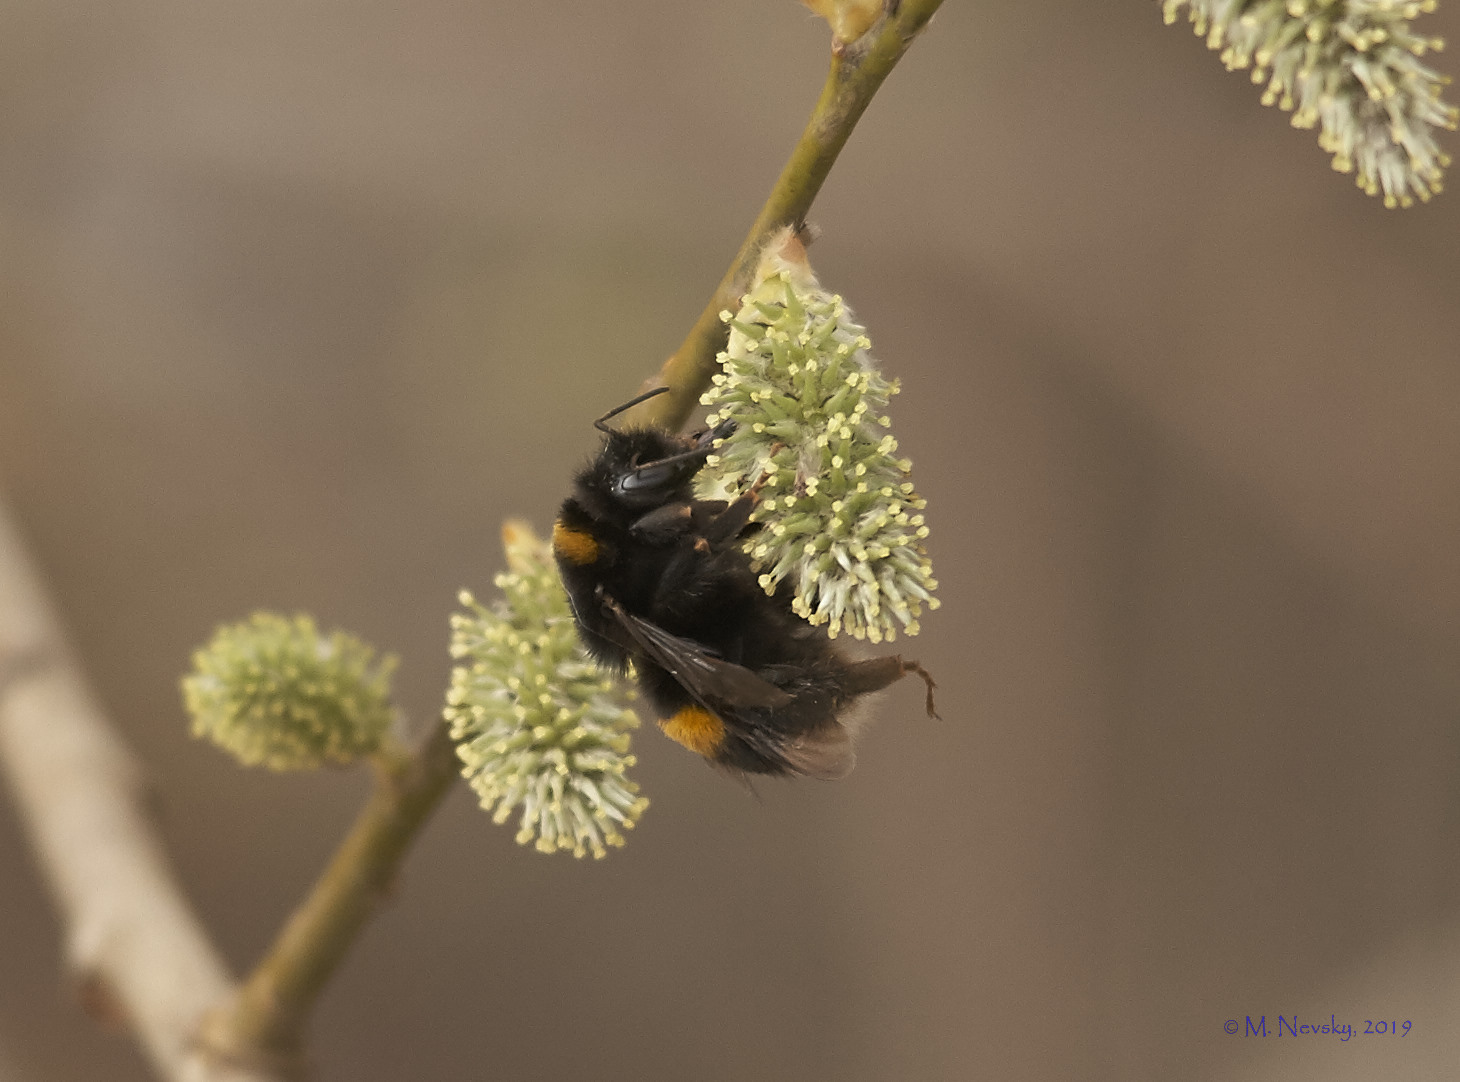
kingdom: Animalia
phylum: Arthropoda
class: Insecta
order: Hymenoptera
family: Apidae
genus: Bombus
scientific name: Bombus terrestris
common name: Buff-tailed bumblebee
